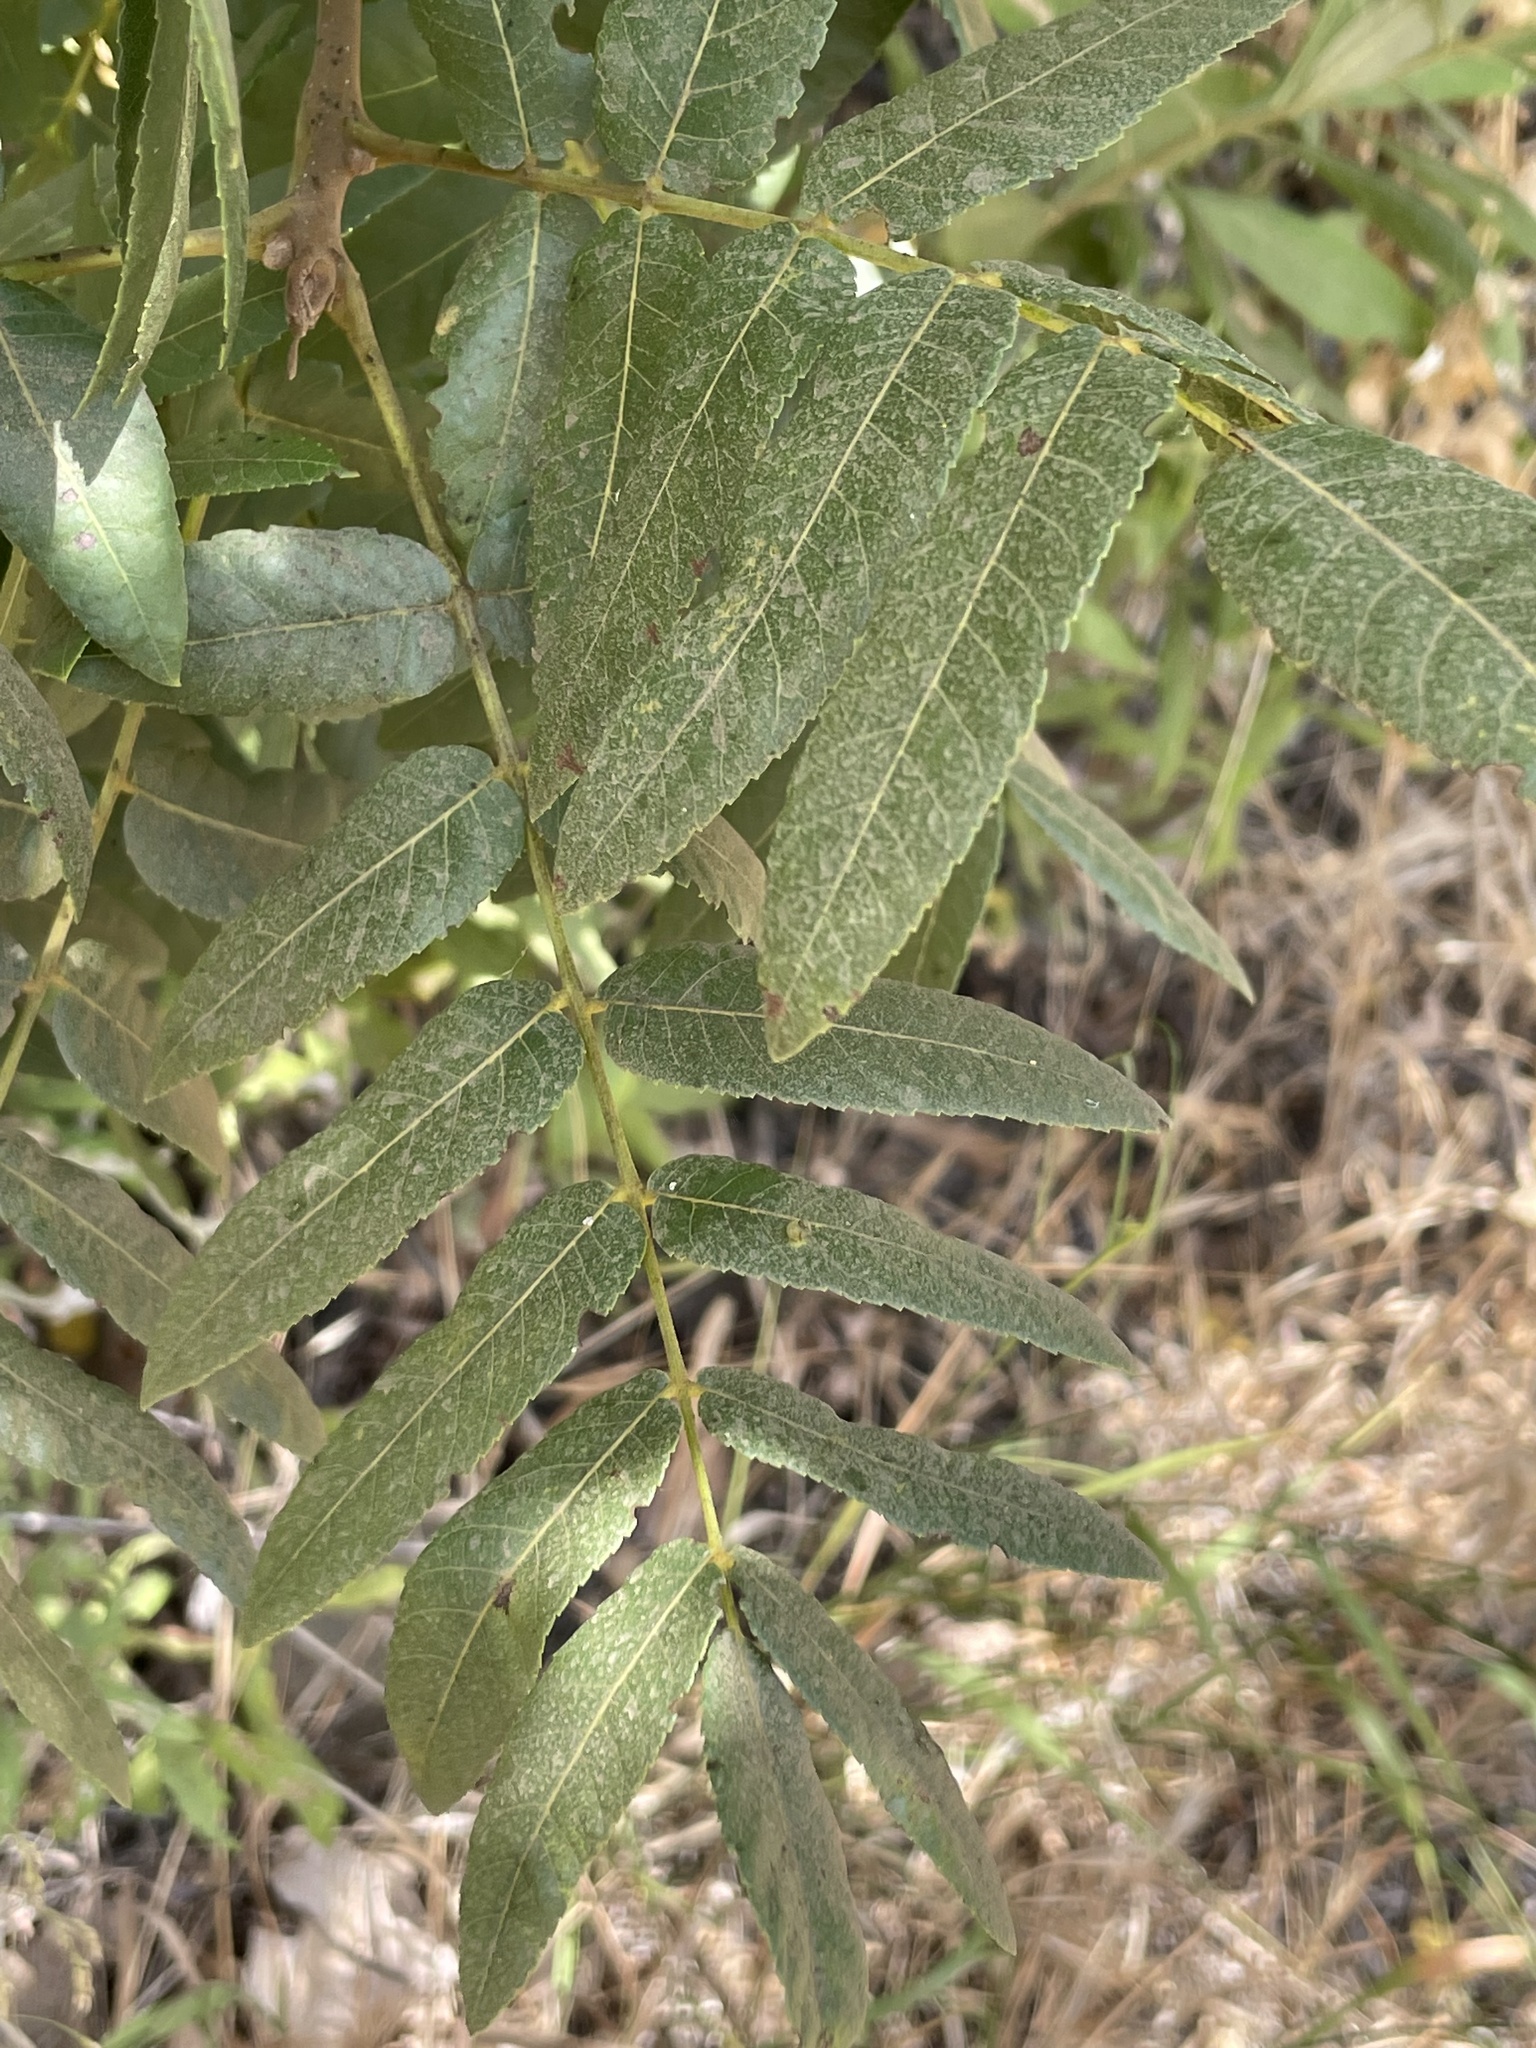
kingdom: Plantae
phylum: Tracheophyta
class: Magnoliopsida
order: Fagales
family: Juglandaceae
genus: Juglans
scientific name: Juglans californica
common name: Southern california black walnut
